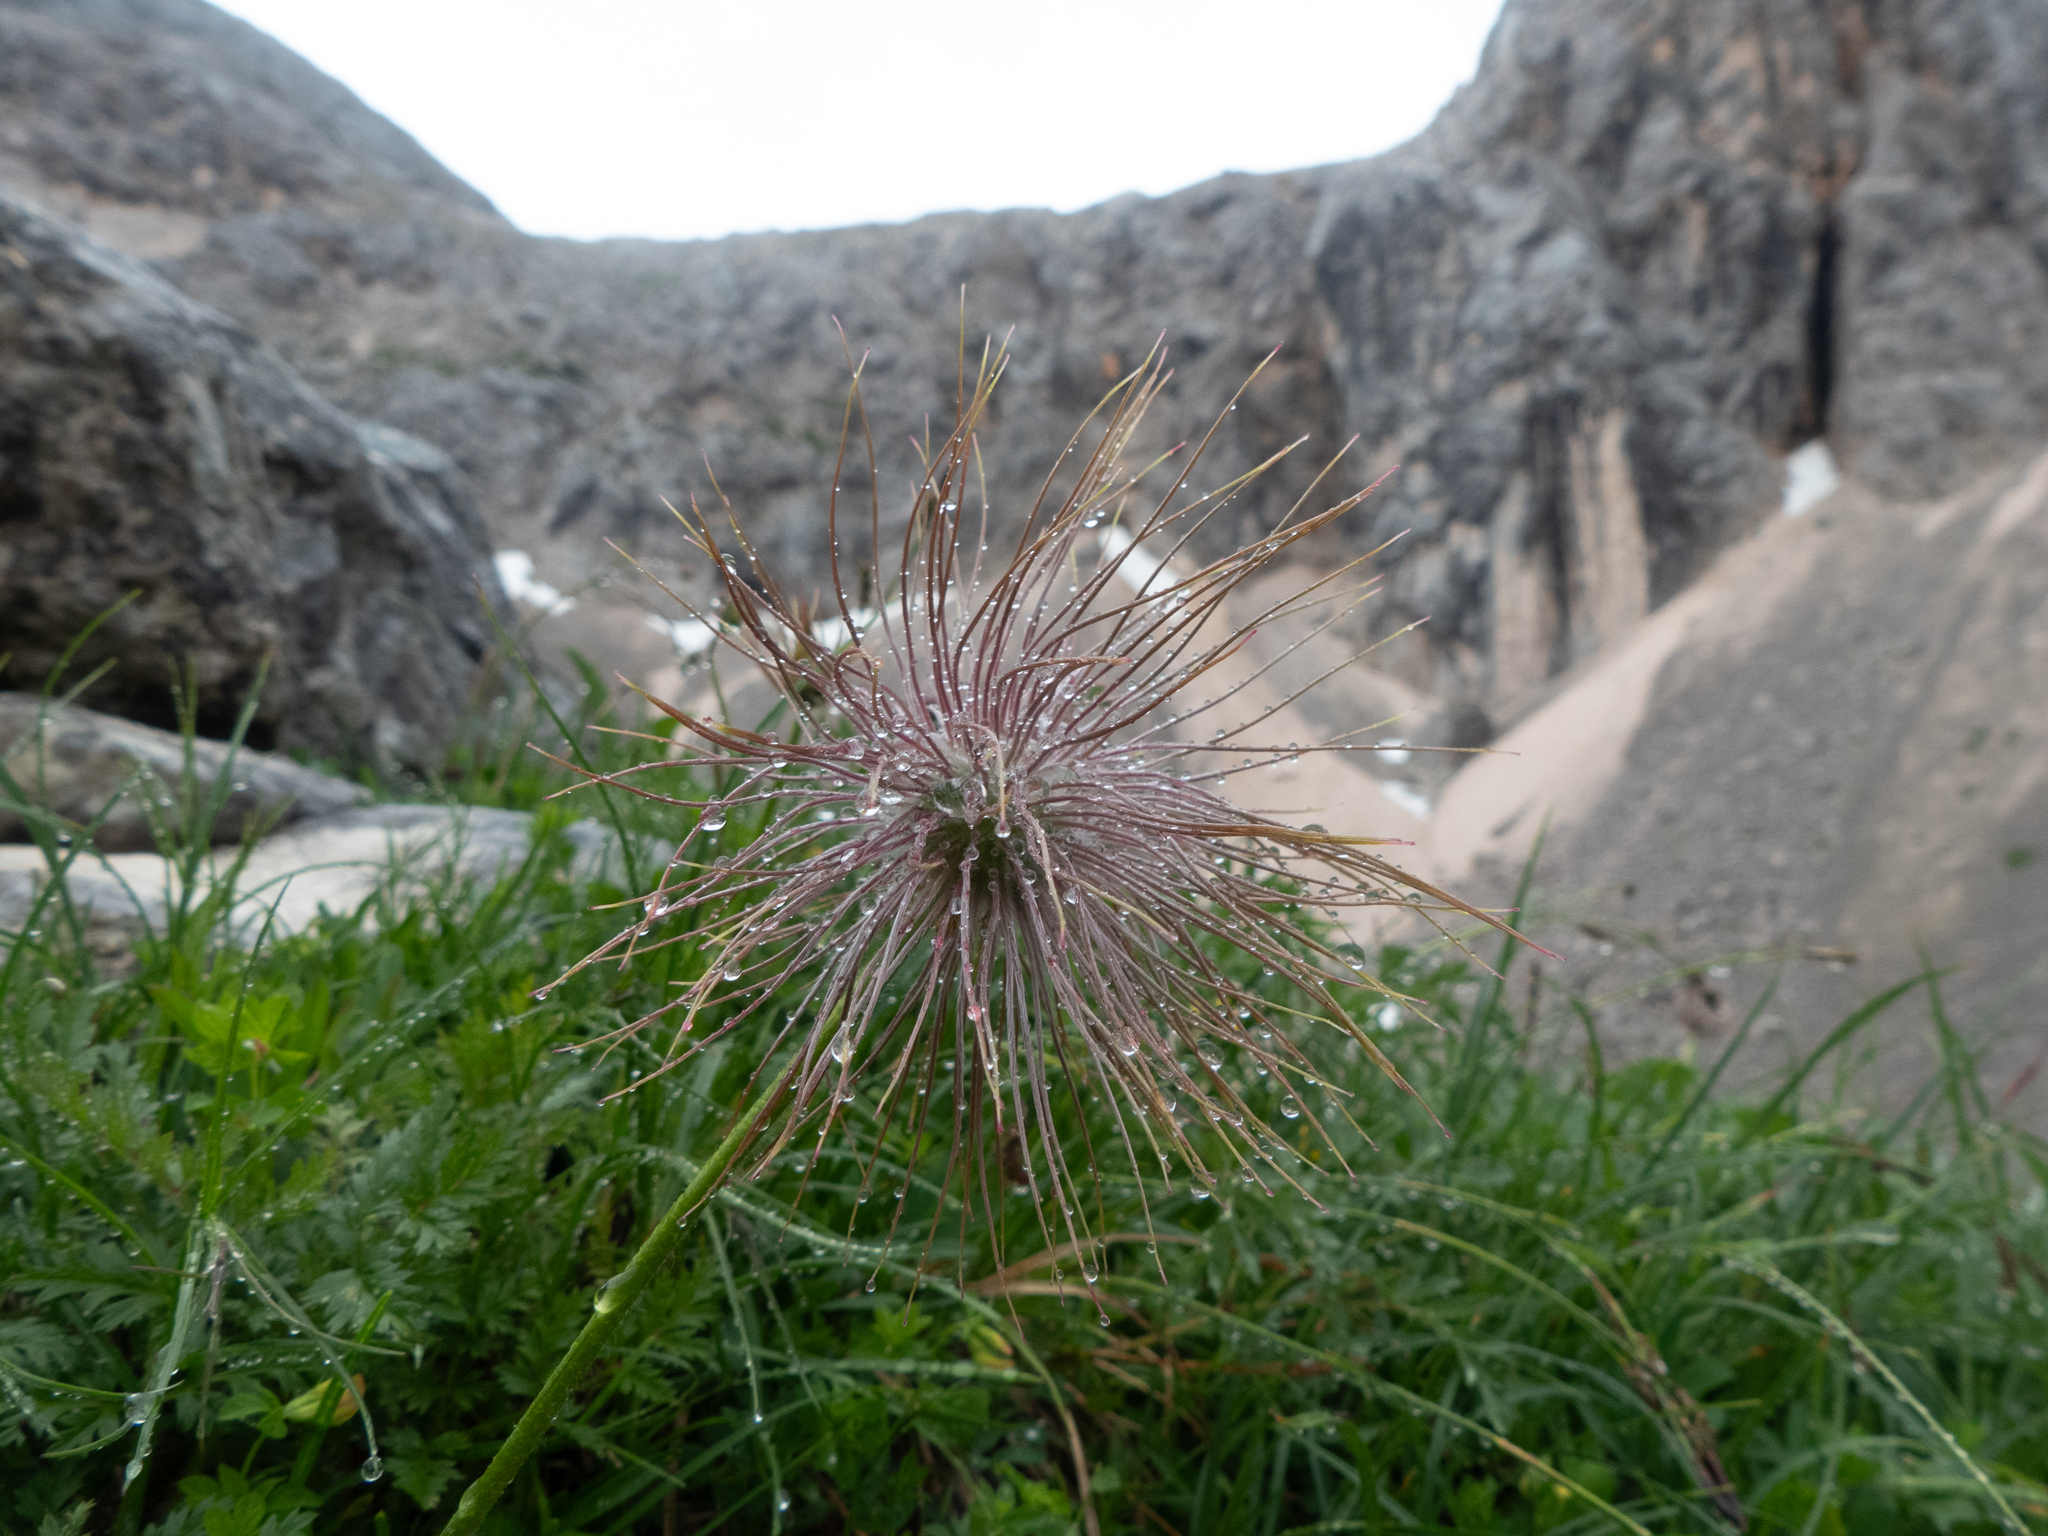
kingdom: Plantae
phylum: Tracheophyta
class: Magnoliopsida
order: Ranunculales
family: Ranunculaceae
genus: Pulsatilla
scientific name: Pulsatilla alpina
